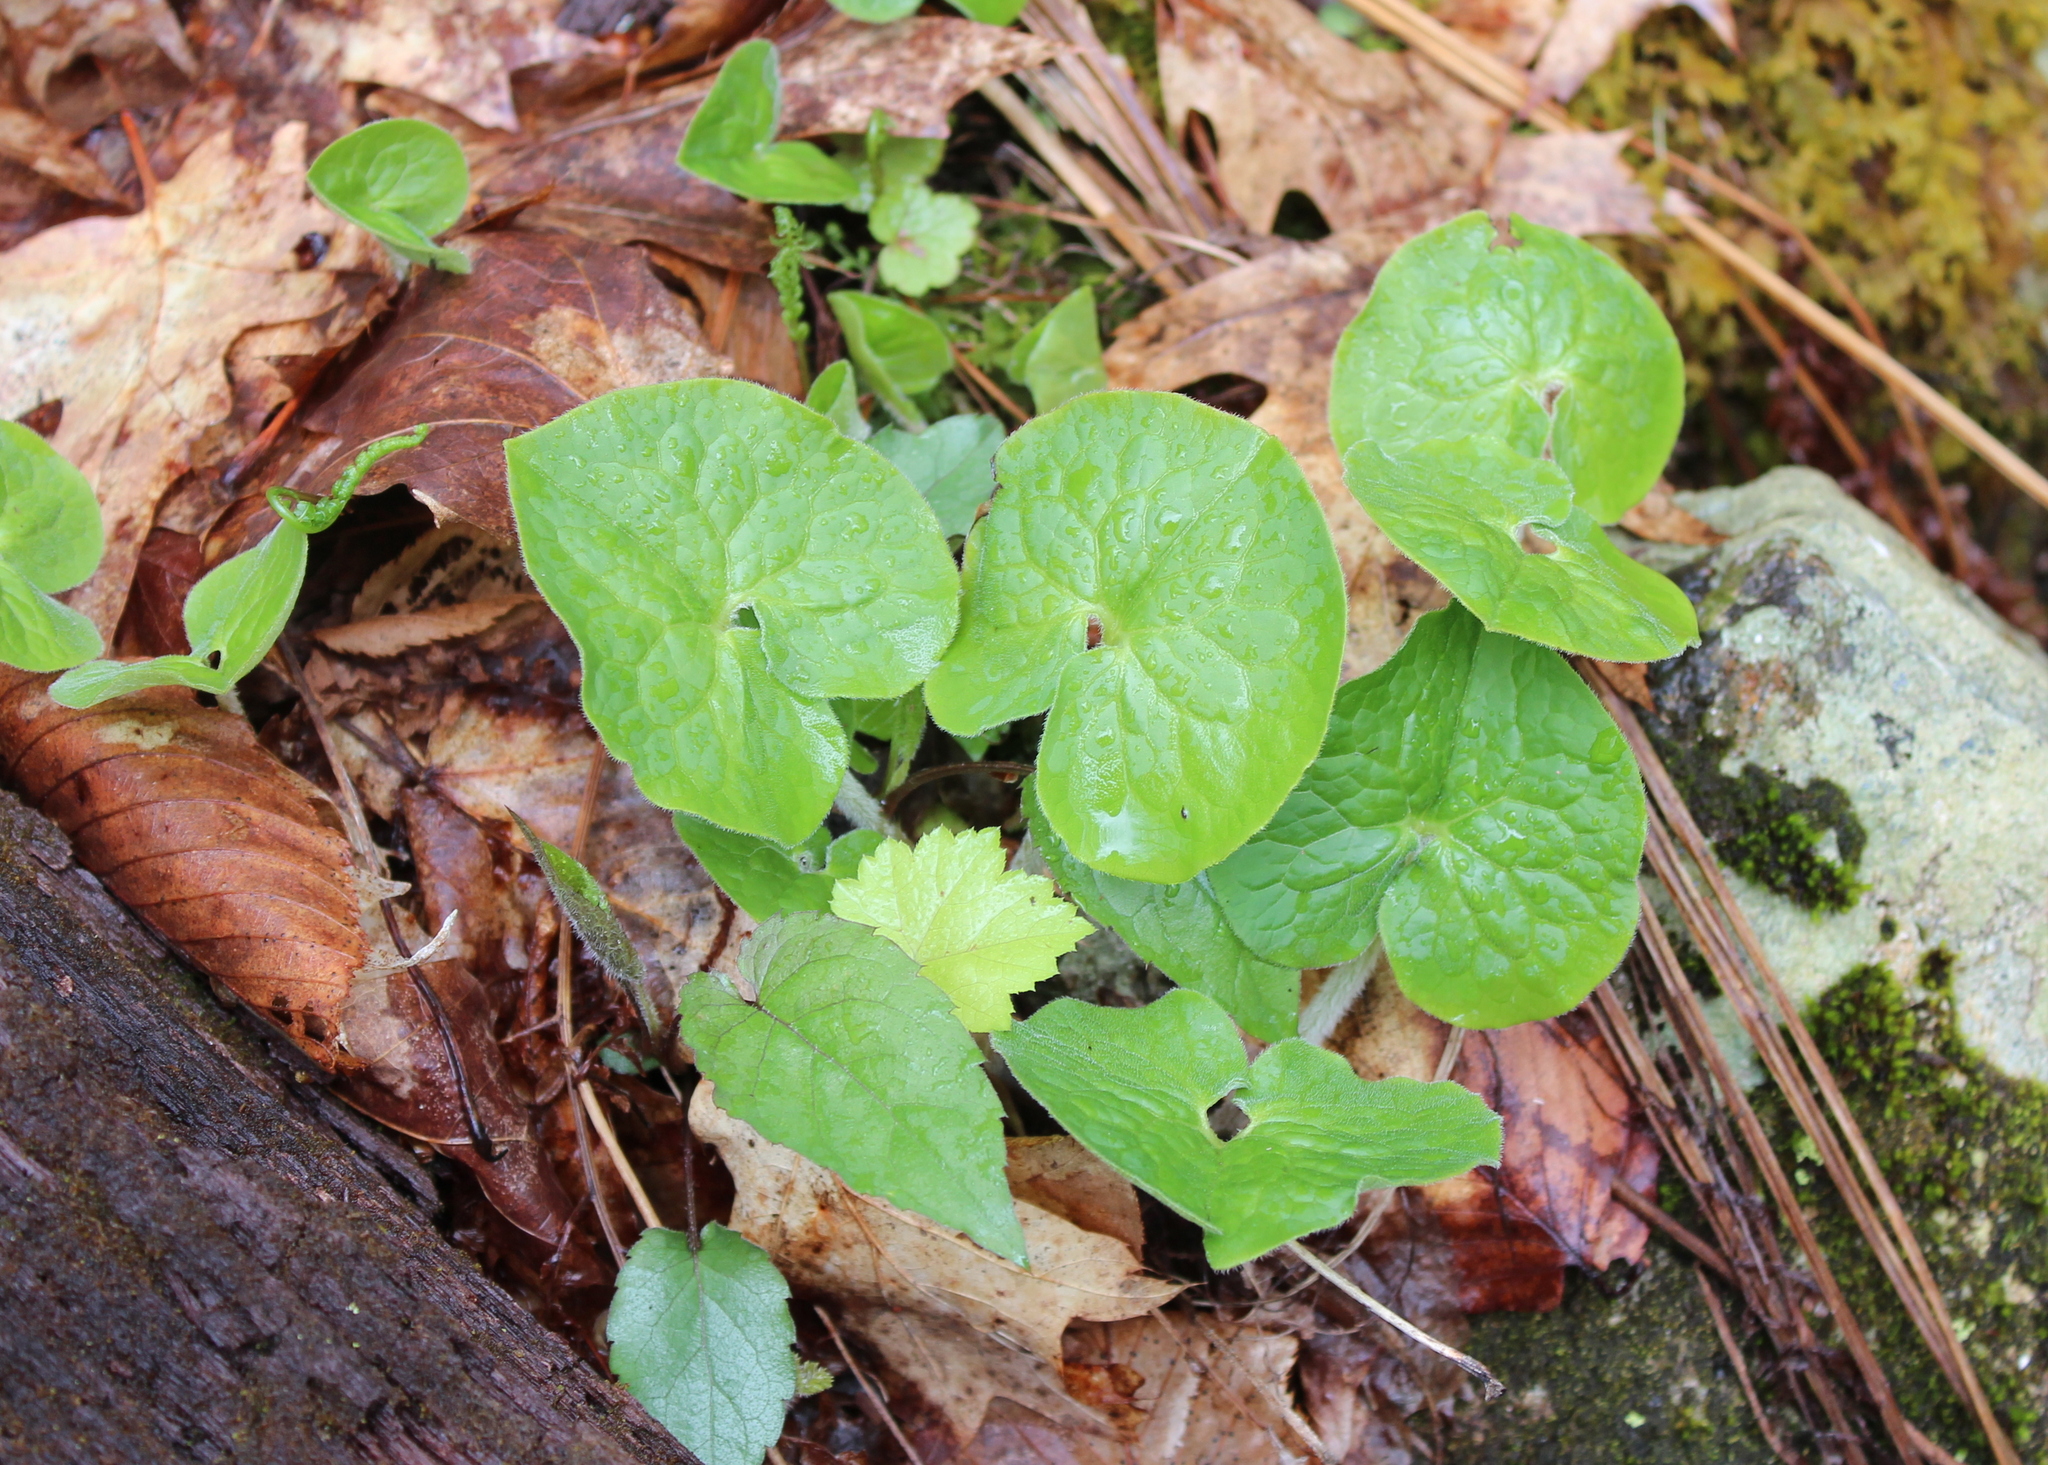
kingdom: Plantae
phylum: Tracheophyta
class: Magnoliopsida
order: Piperales
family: Aristolochiaceae
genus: Asarum
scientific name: Asarum canadense
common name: Wild ginger
